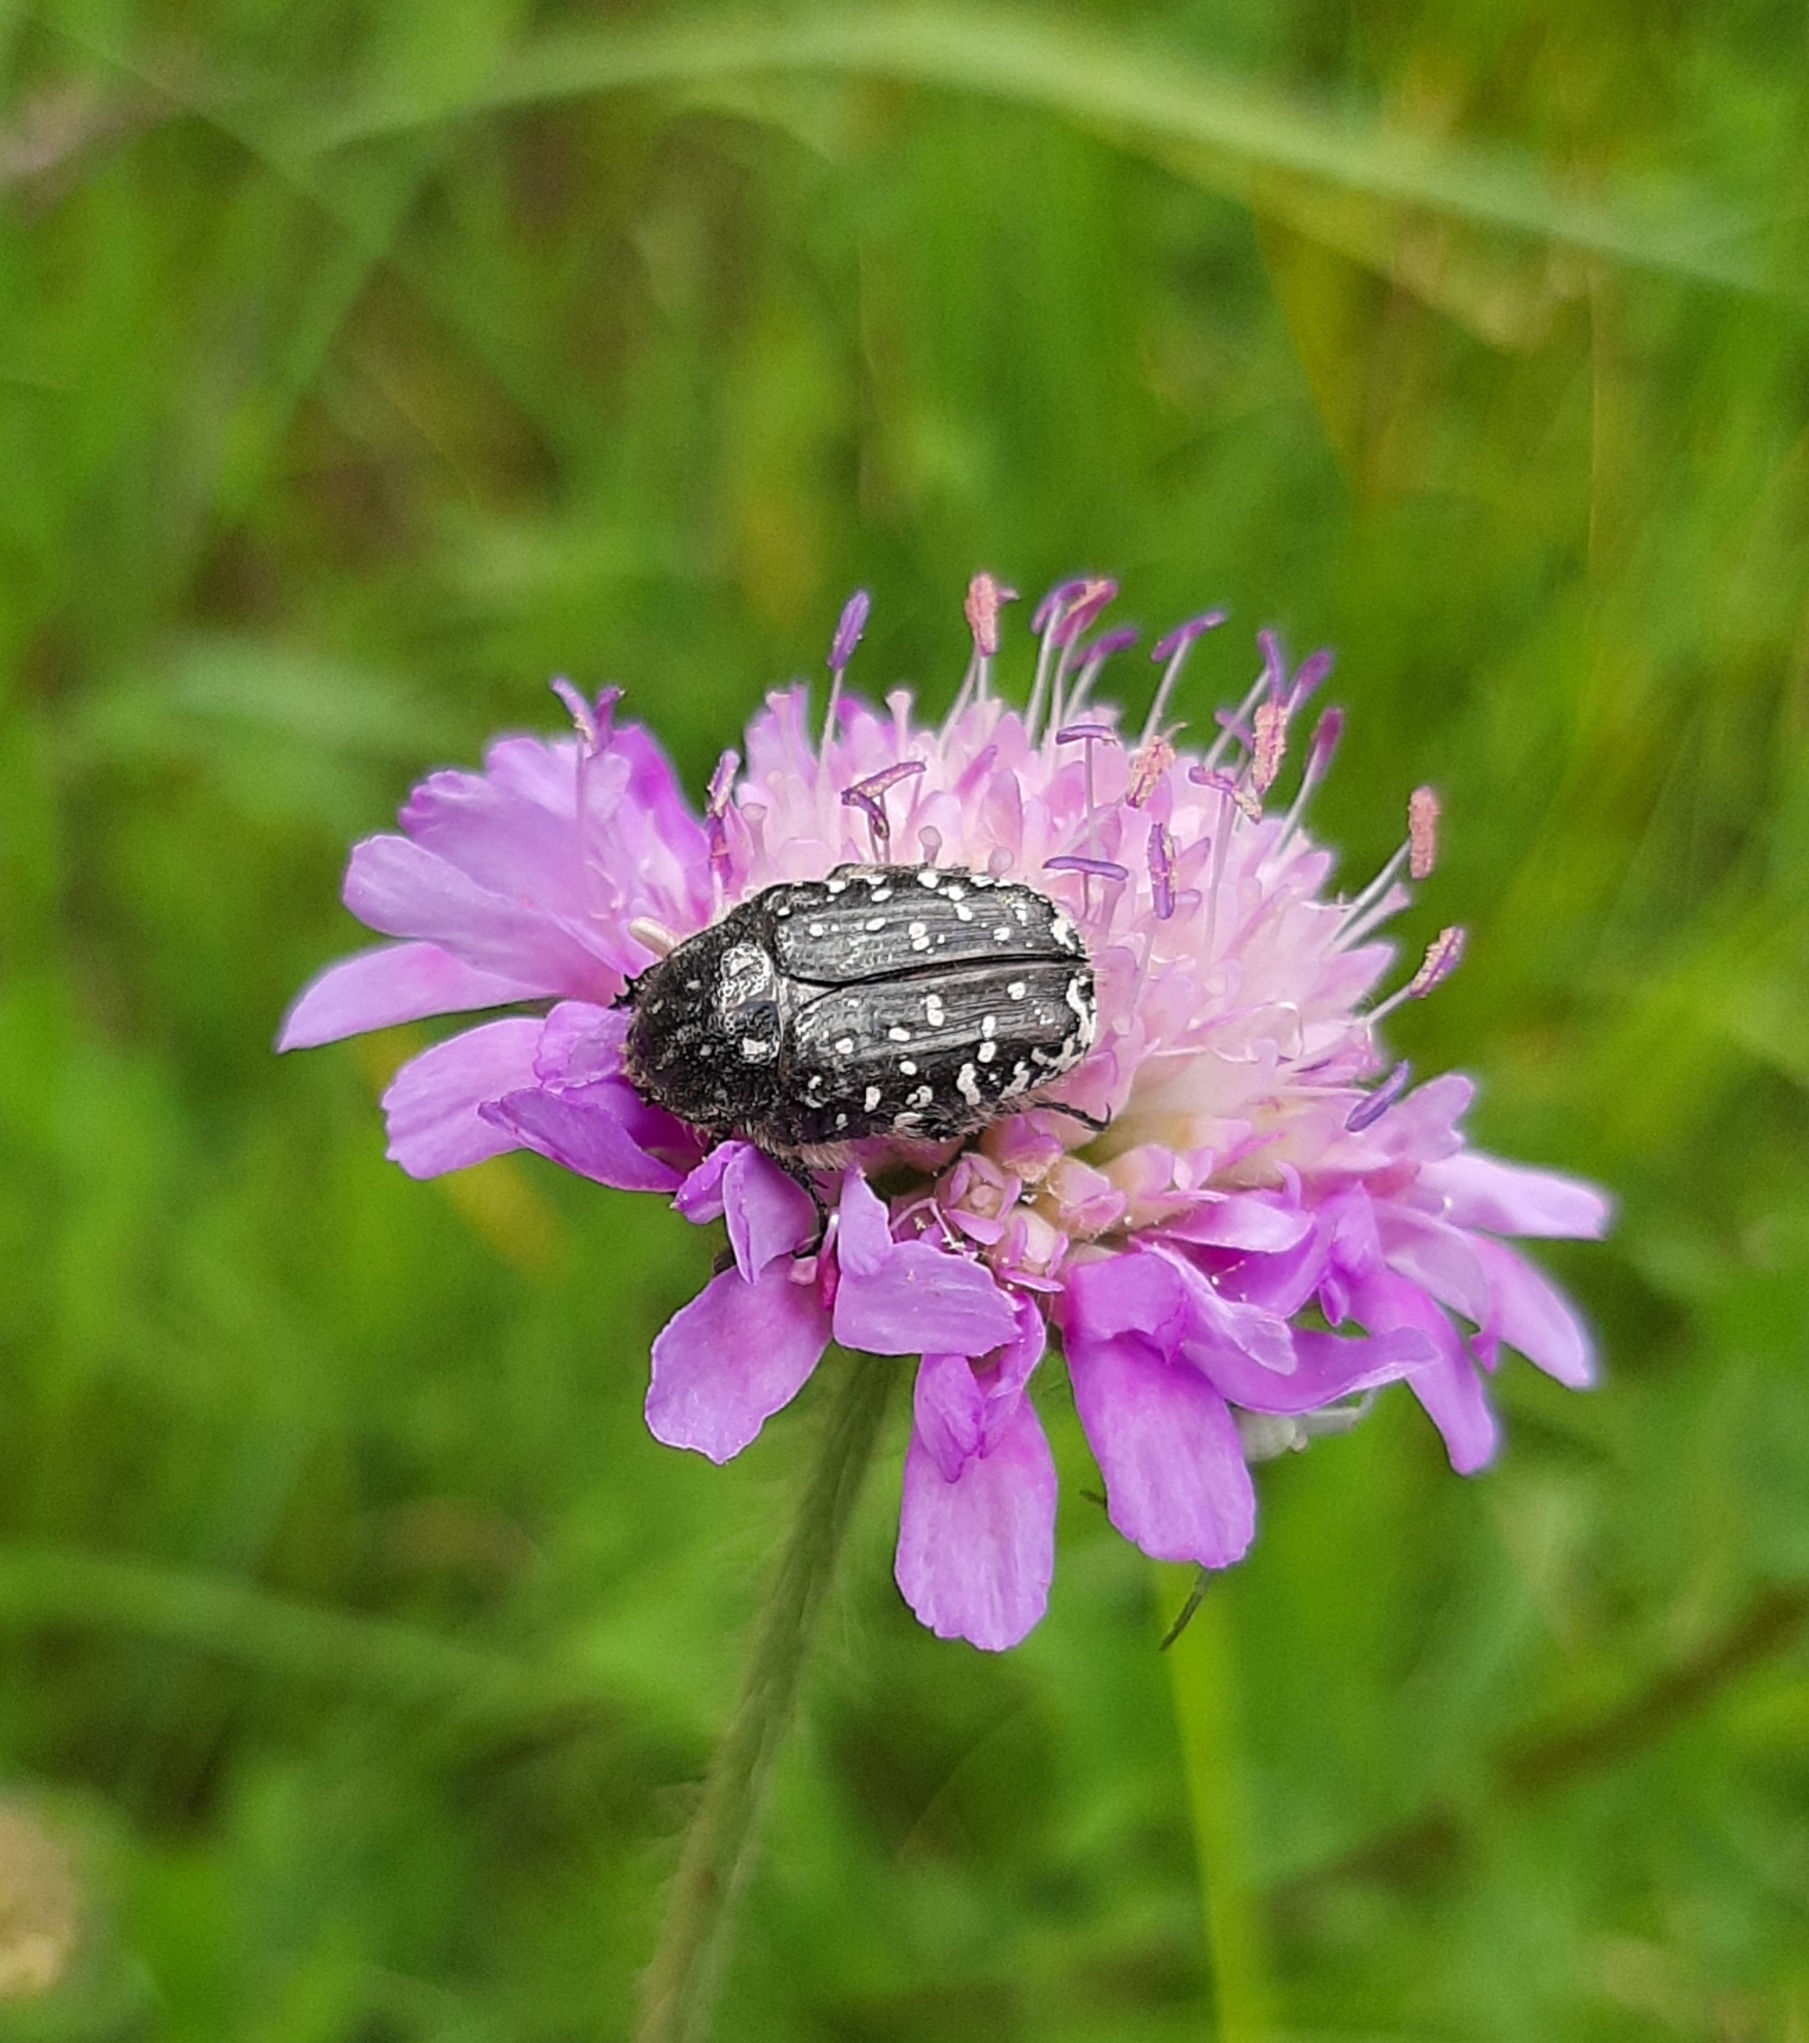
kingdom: Animalia
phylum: Arthropoda
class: Insecta
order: Coleoptera
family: Scarabaeidae
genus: Oxythyrea
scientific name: Oxythyrea funesta
